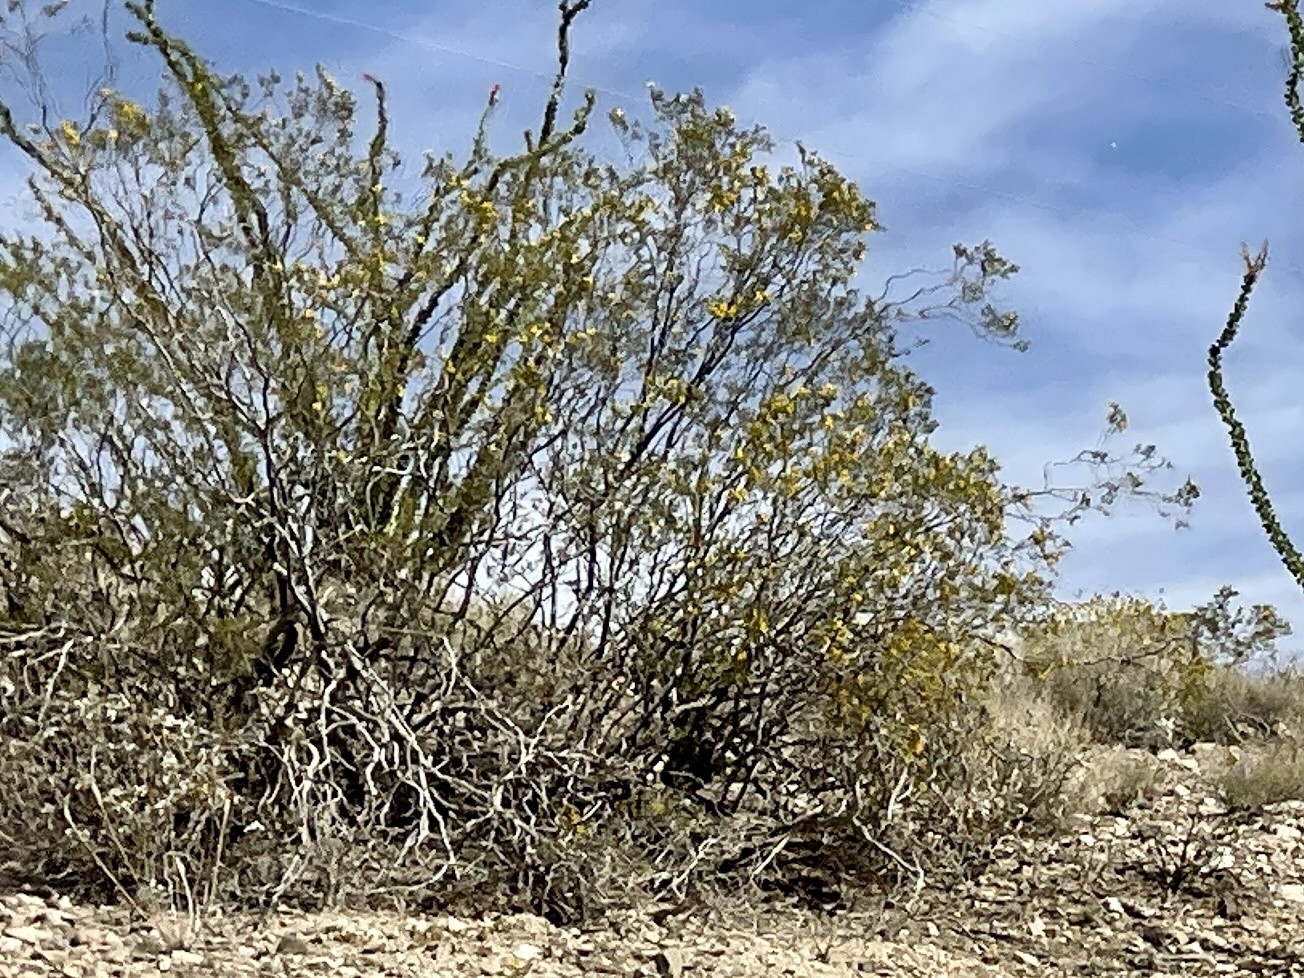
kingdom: Plantae
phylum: Tracheophyta
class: Magnoliopsida
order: Zygophyllales
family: Zygophyllaceae
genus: Larrea
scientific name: Larrea tridentata
